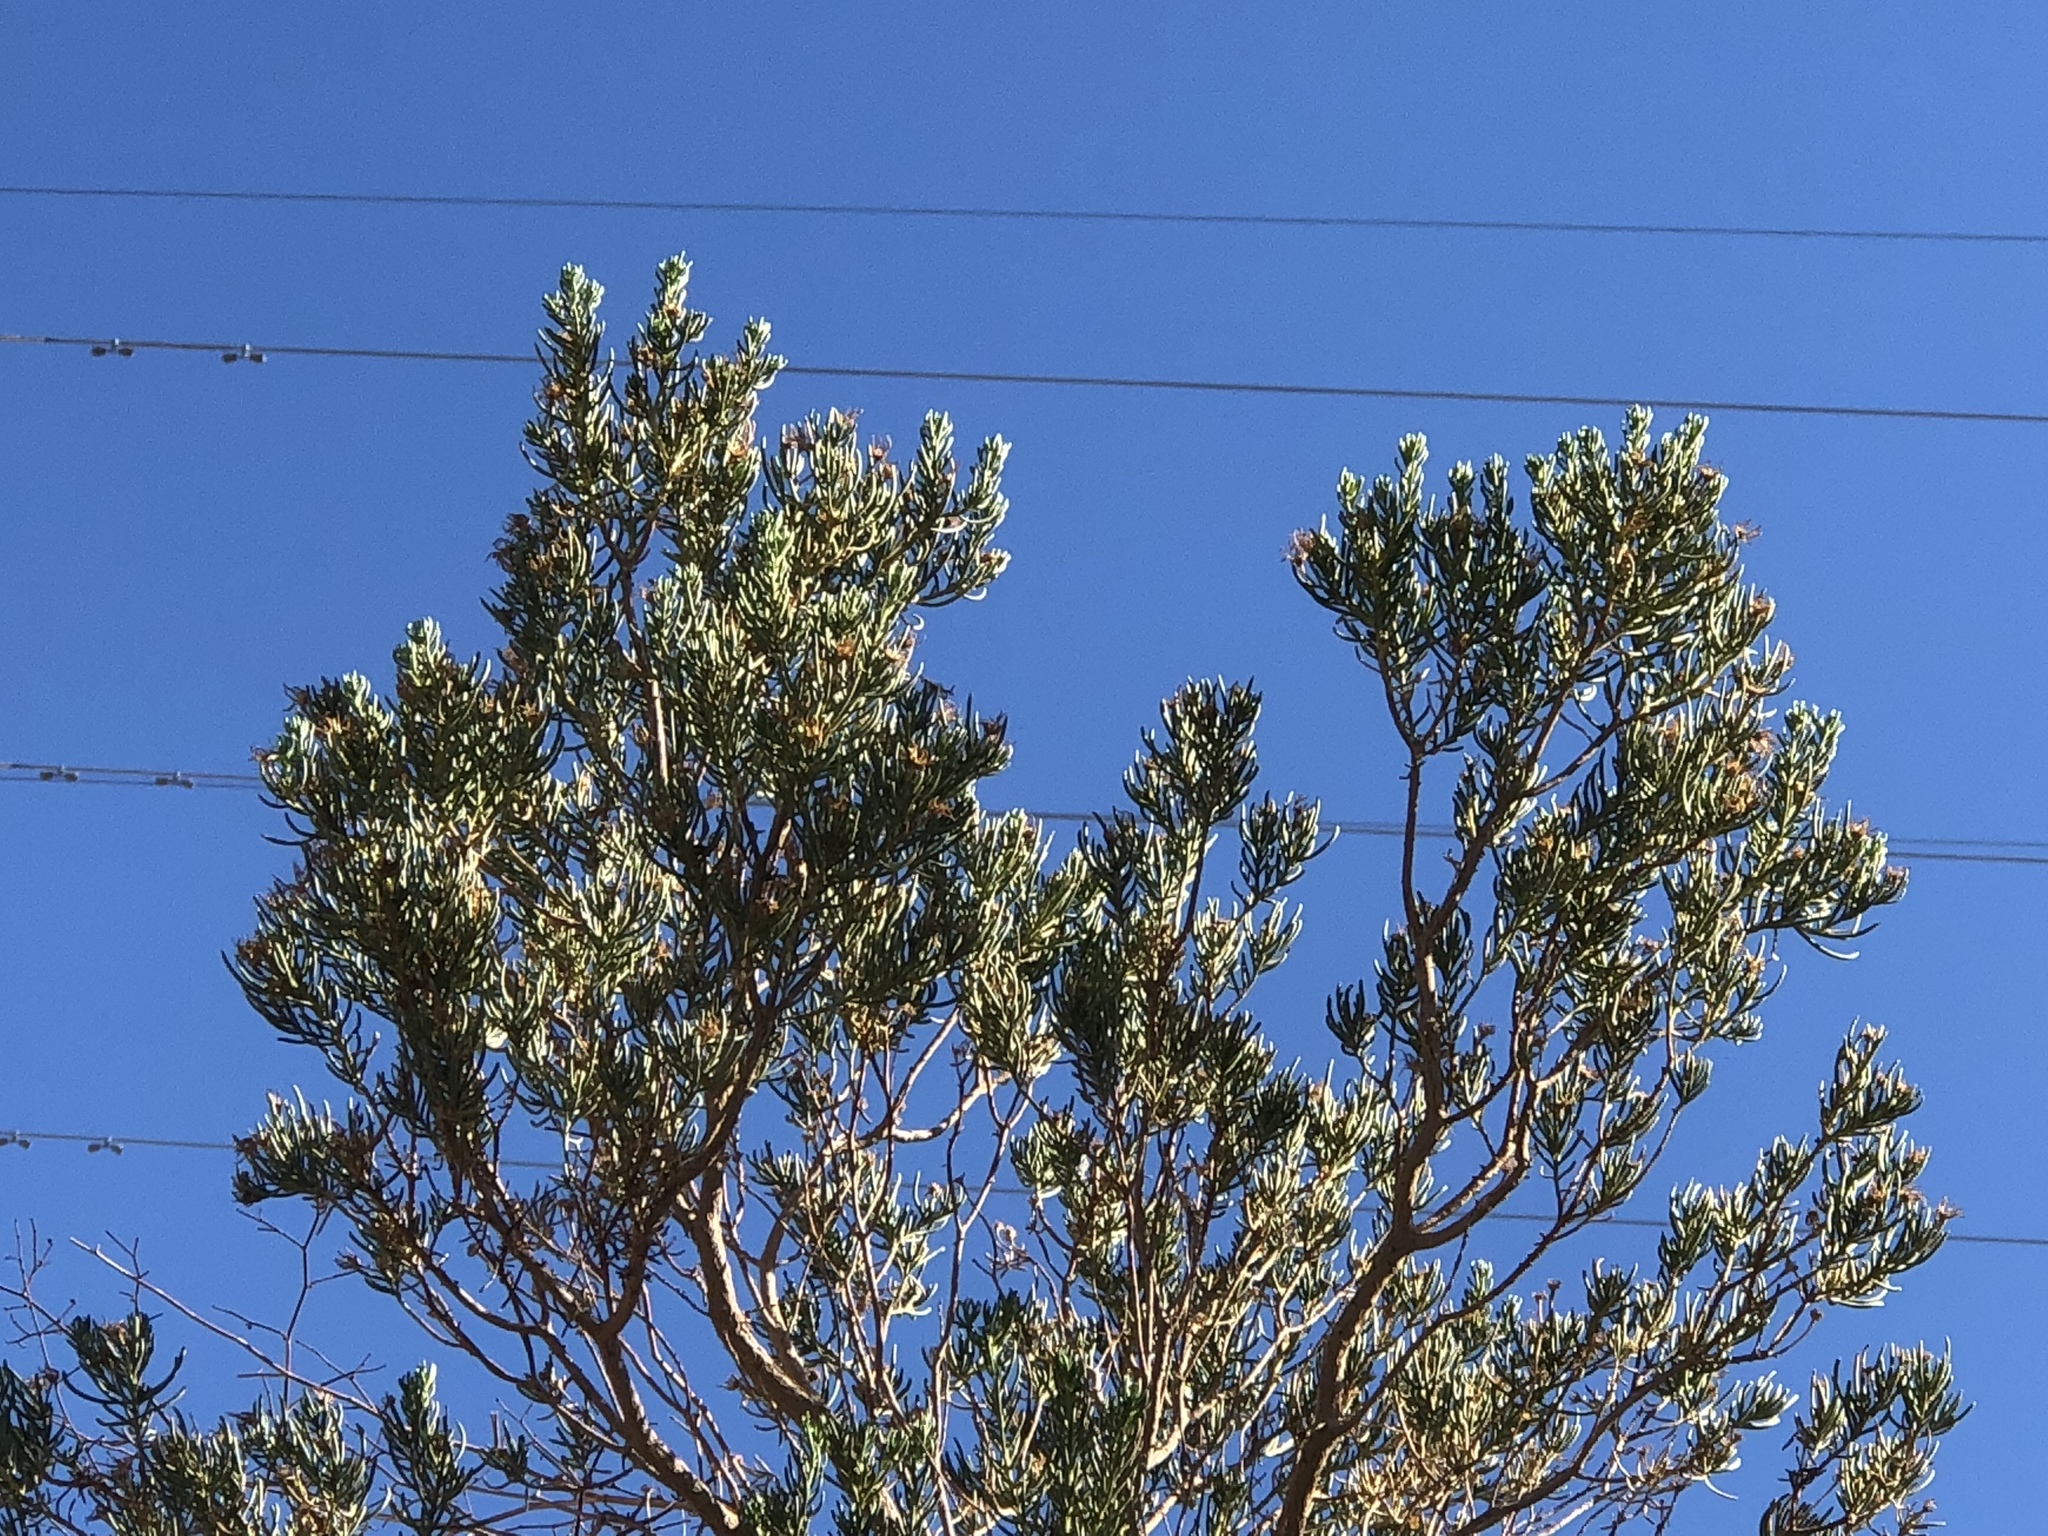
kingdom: Plantae
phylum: Tracheophyta
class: Magnoliopsida
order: Asterales
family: Asteraceae
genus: Peucephyllum
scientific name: Peucephyllum schottii
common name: Pygmy-cedar
